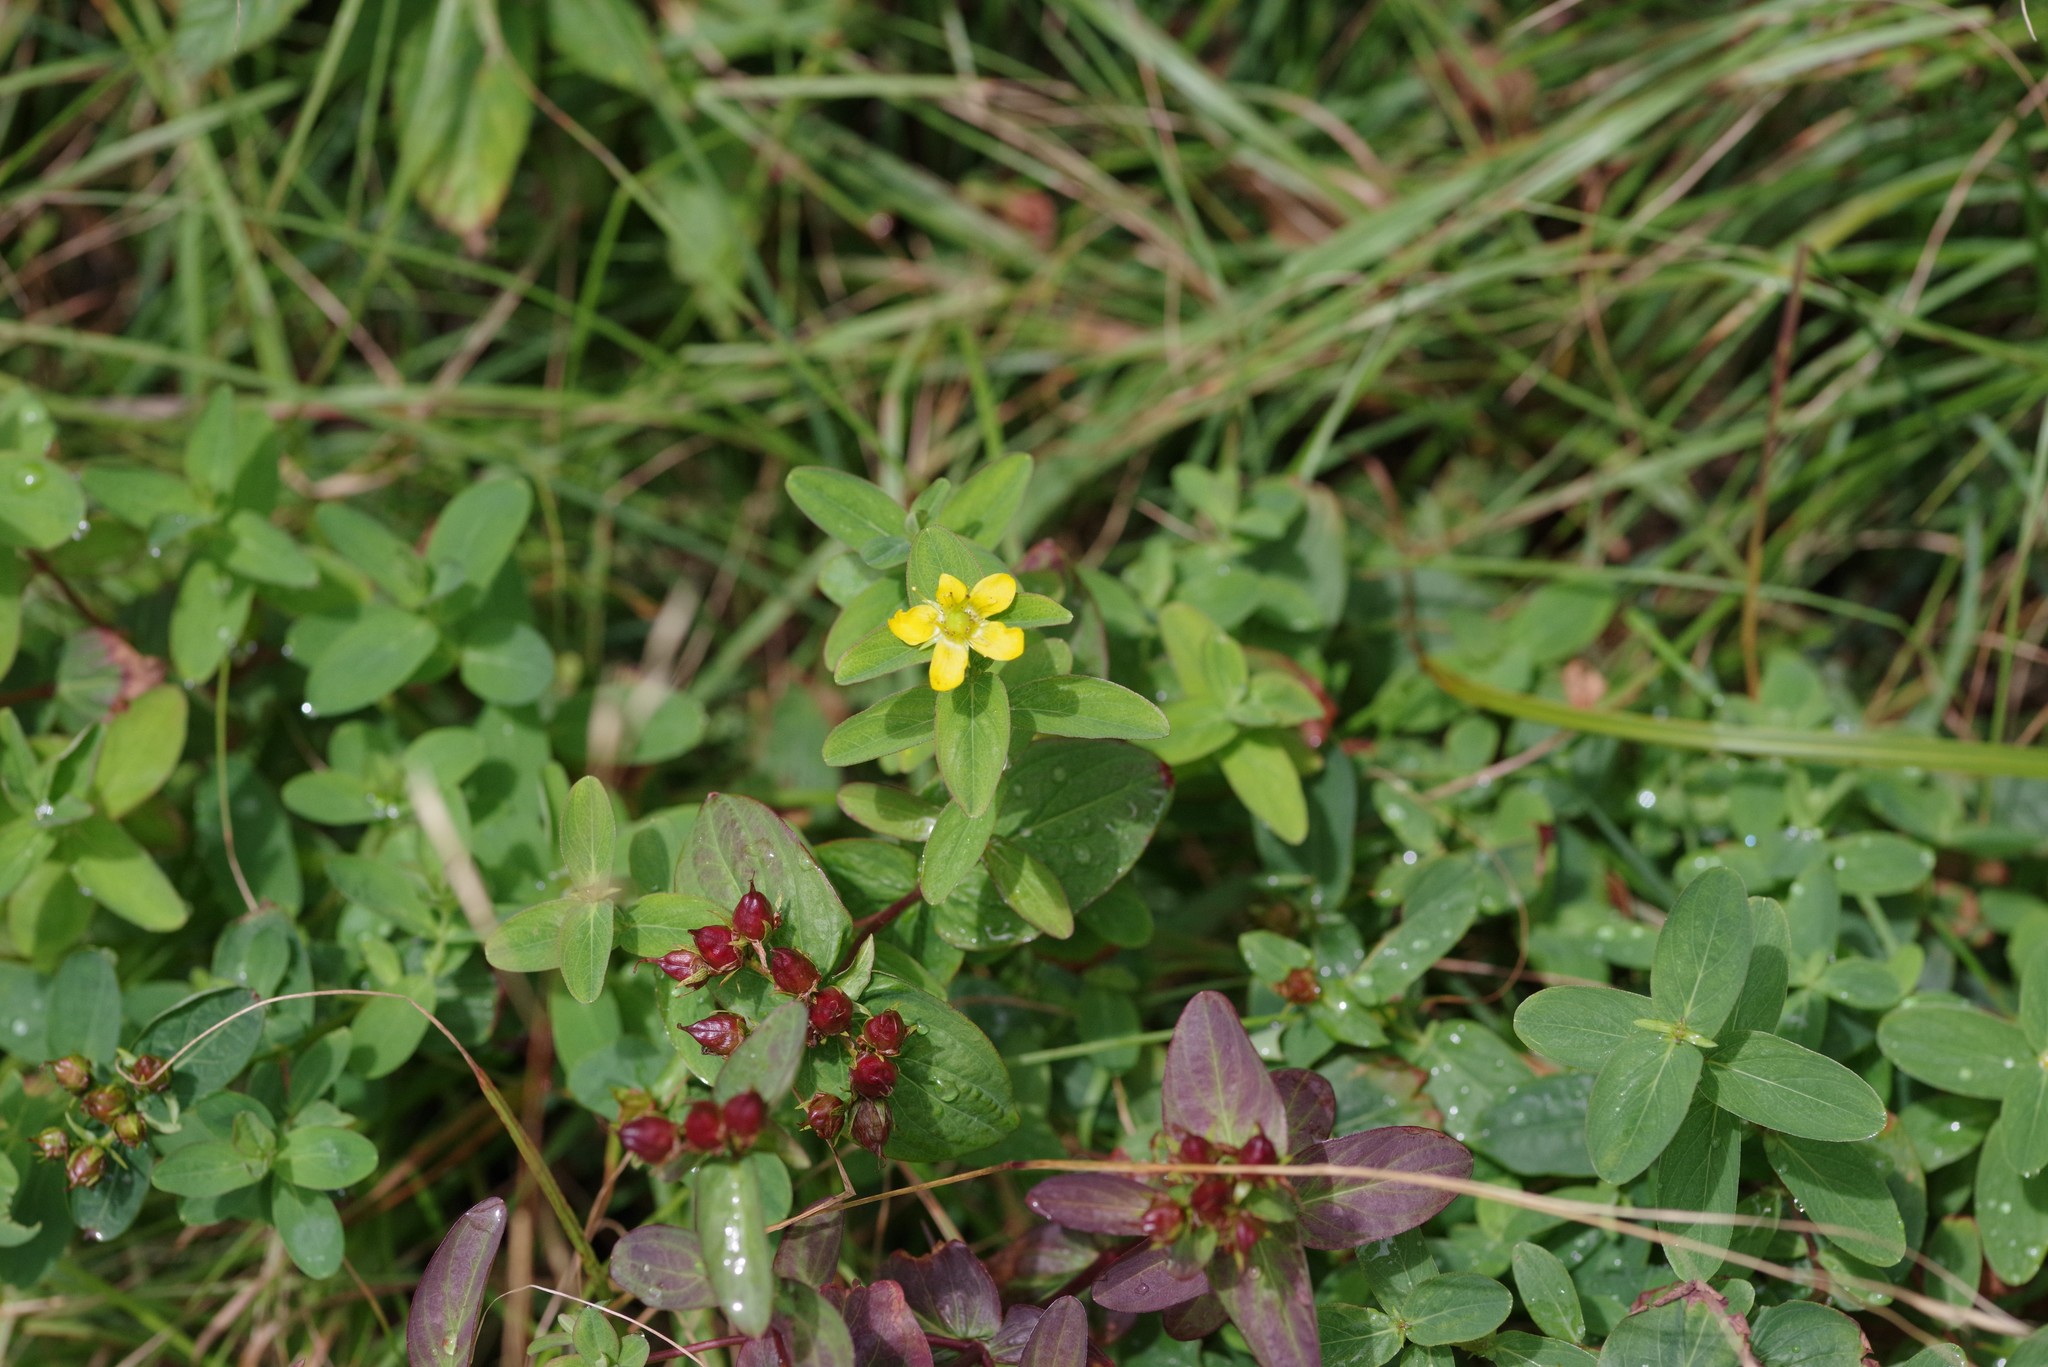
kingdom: Plantae
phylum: Tracheophyta
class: Magnoliopsida
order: Malpighiales
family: Hypericaceae
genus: Hypericum
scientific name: Hypericum mitchellianum
